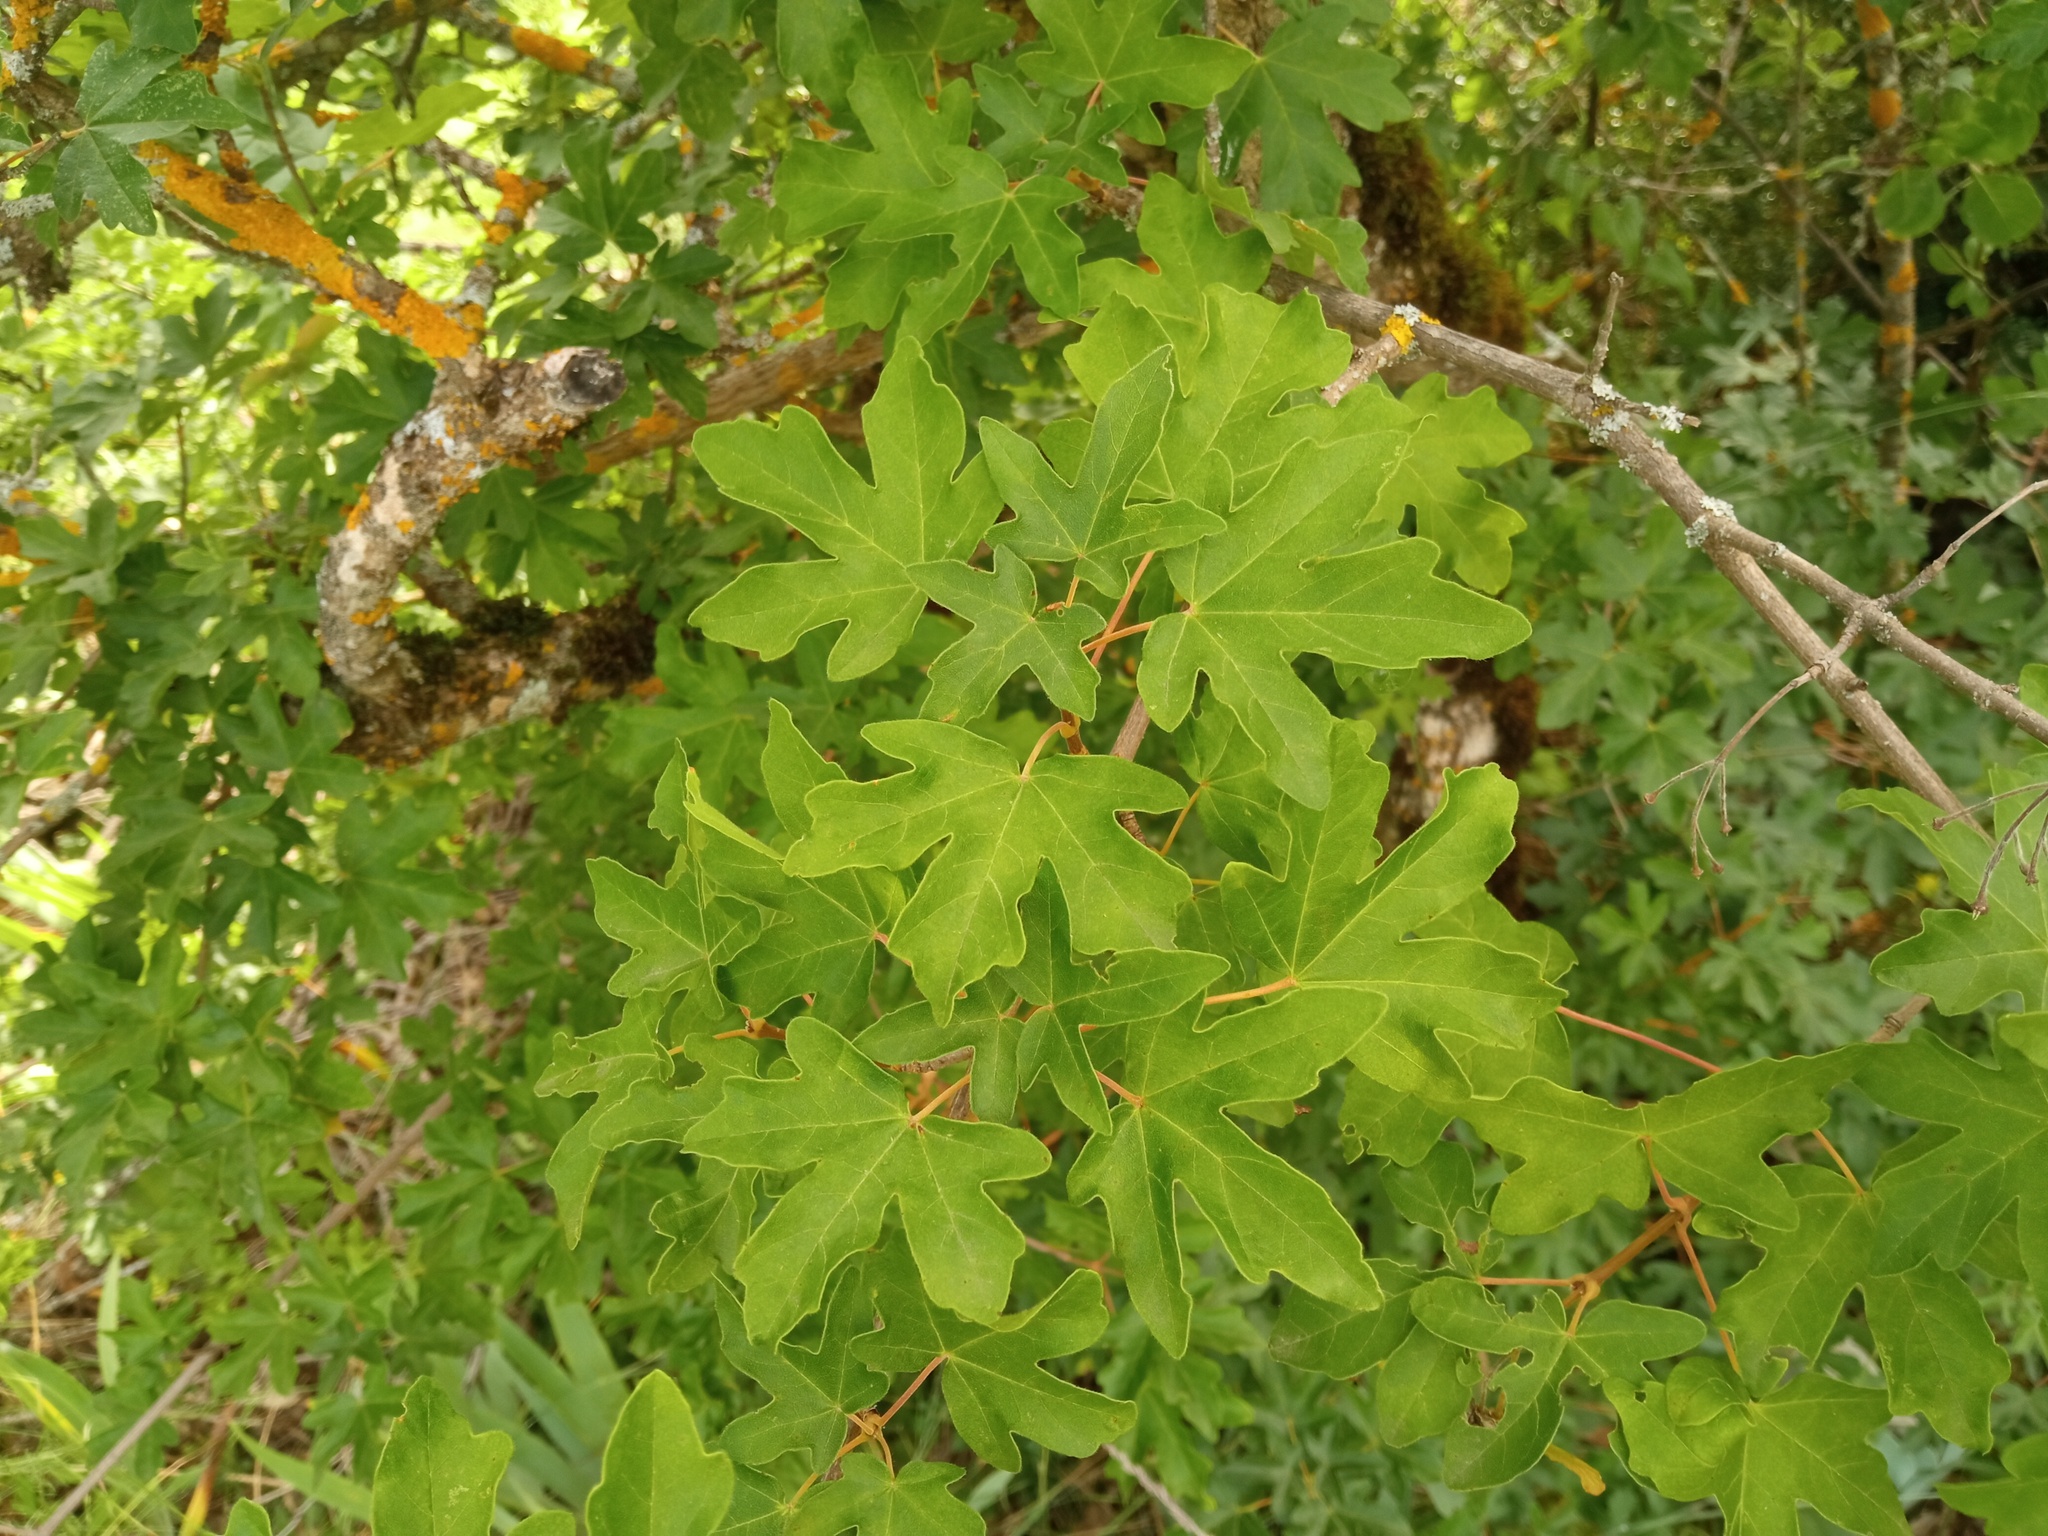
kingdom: Plantae
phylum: Tracheophyta
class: Magnoliopsida
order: Sapindales
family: Sapindaceae
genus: Acer
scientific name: Acer campestre
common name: Field maple
